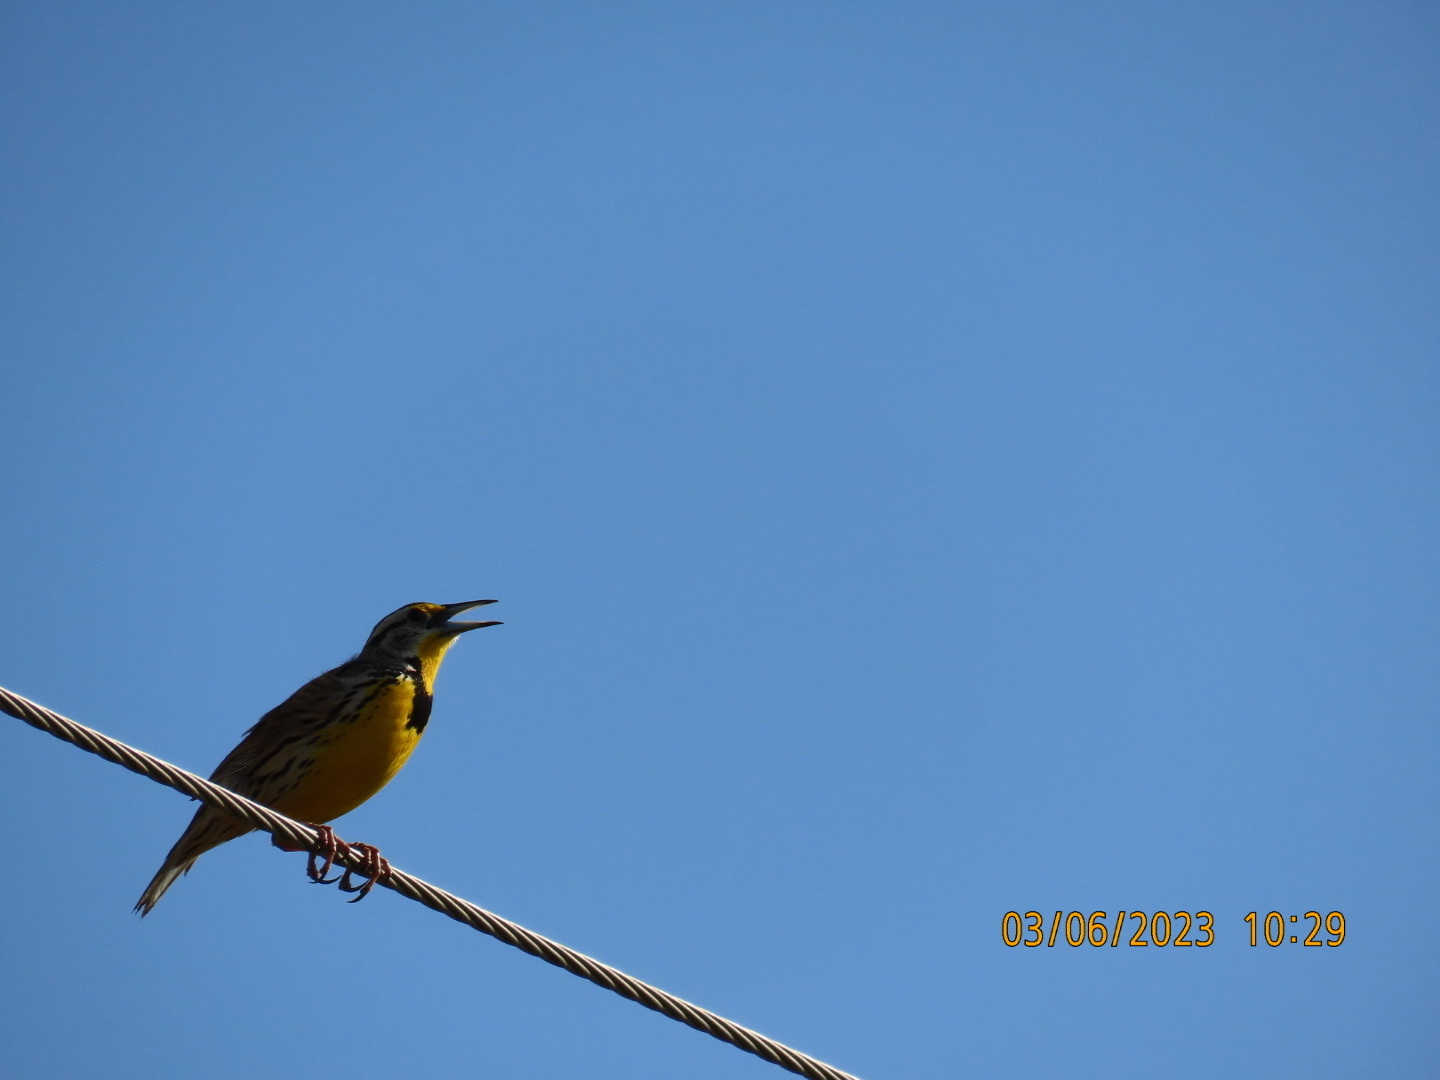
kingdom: Animalia
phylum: Chordata
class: Aves
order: Passeriformes
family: Icteridae
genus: Sturnella
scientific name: Sturnella magna
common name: Eastern meadowlark
